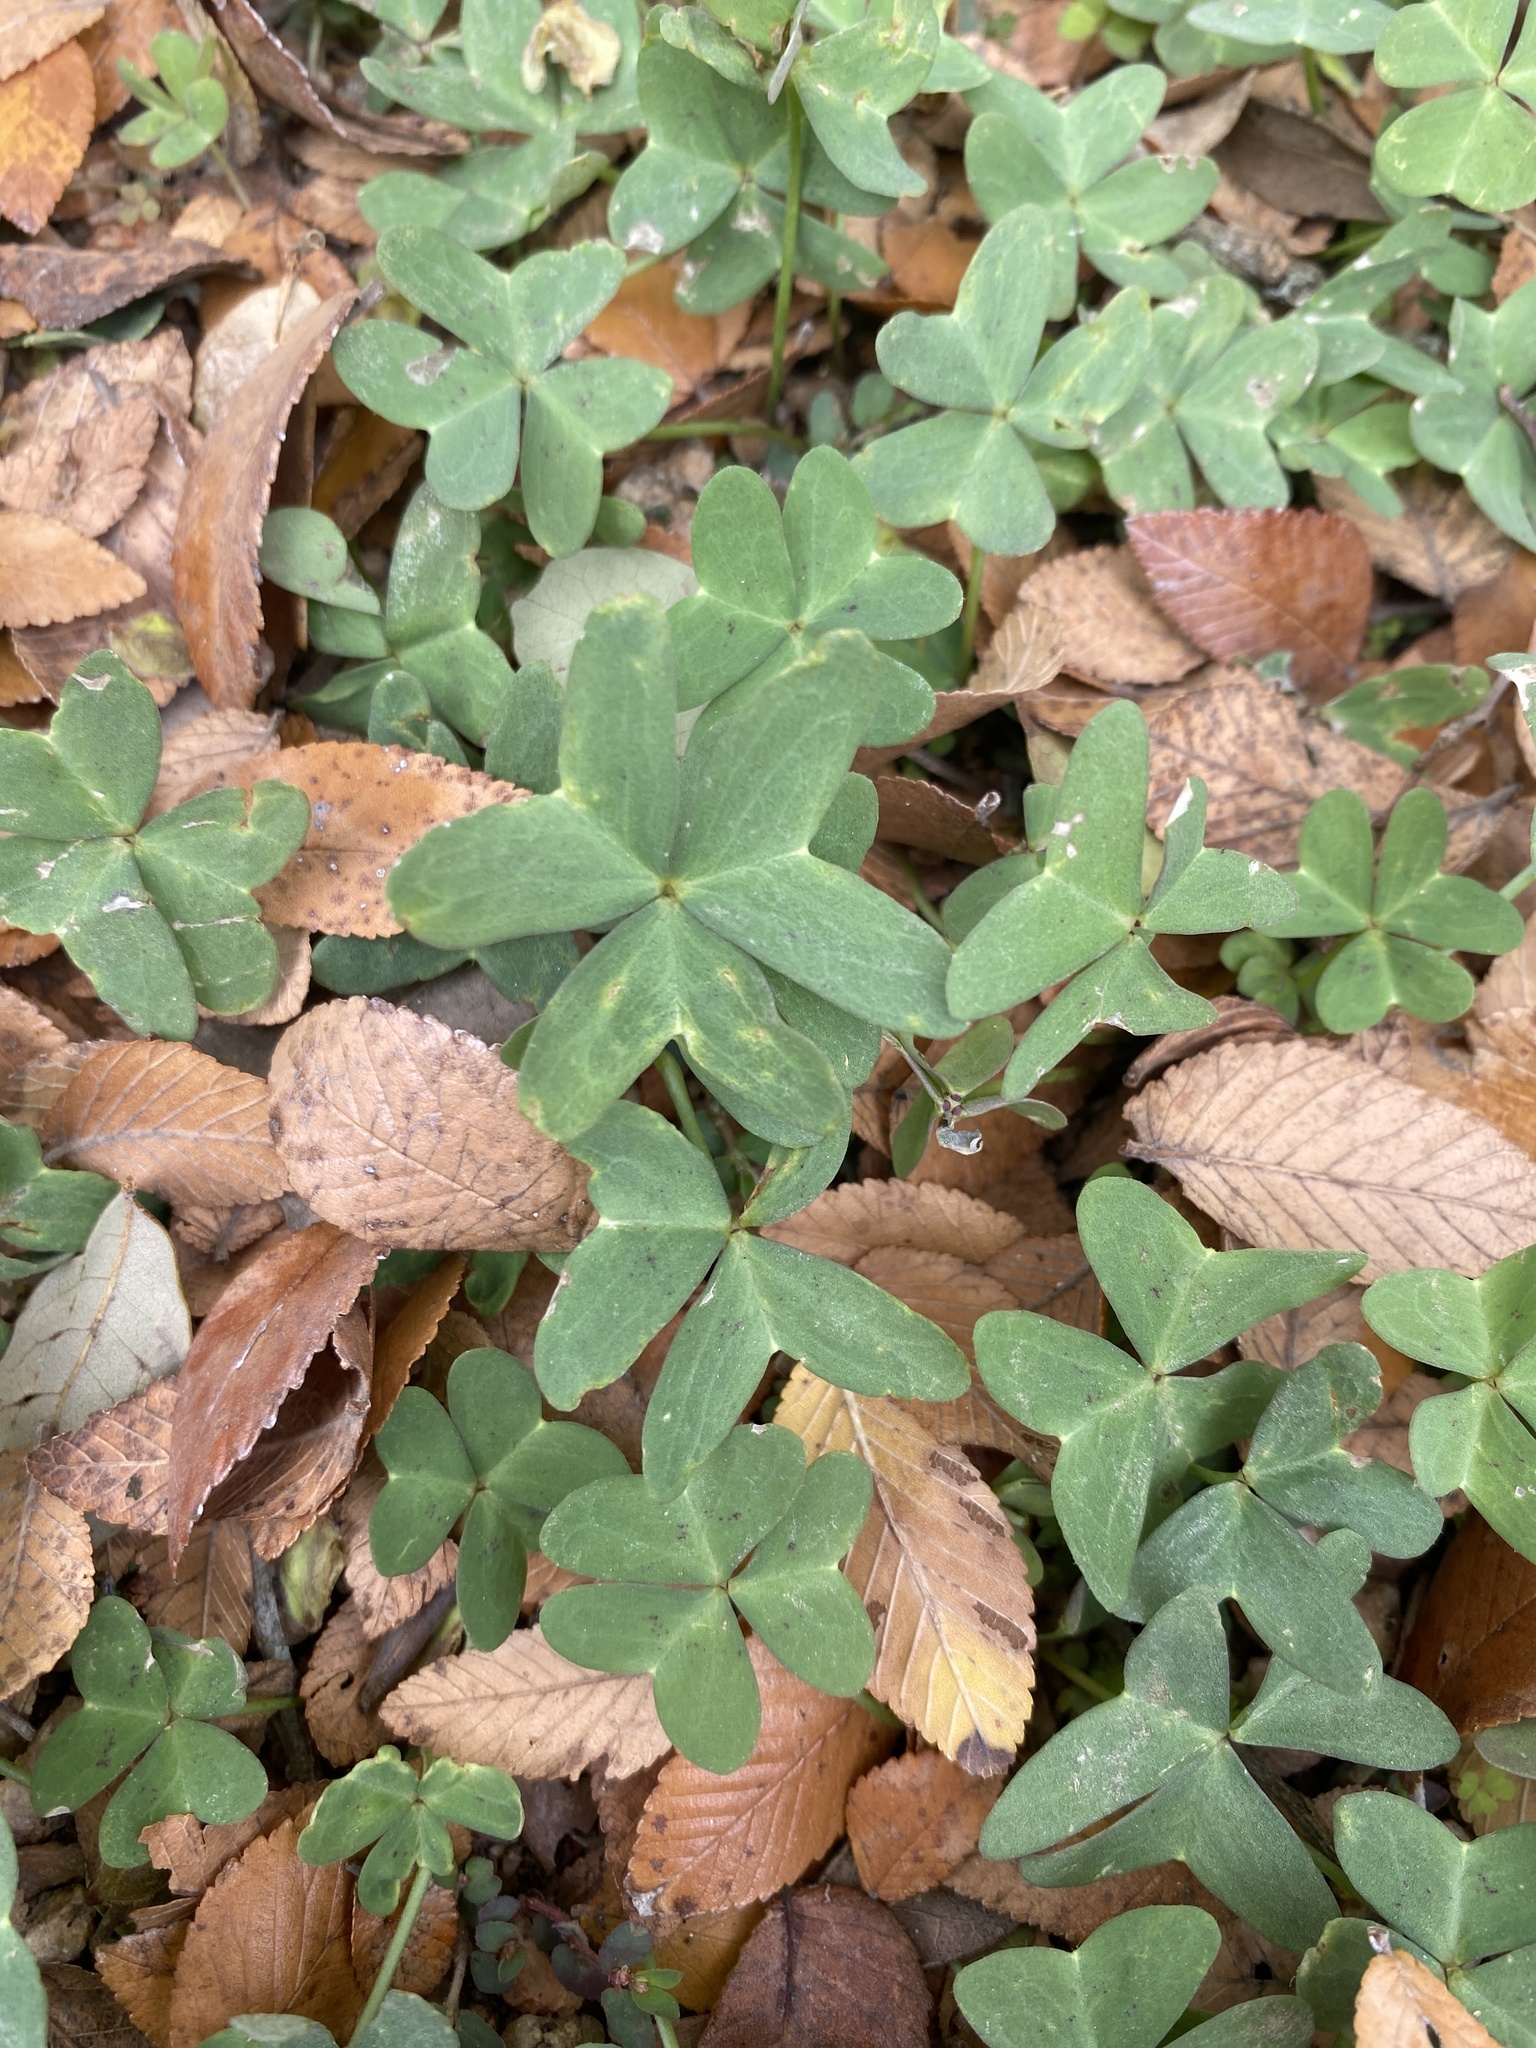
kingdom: Plantae
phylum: Tracheophyta
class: Magnoliopsida
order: Oxalidales
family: Oxalidaceae
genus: Oxalis
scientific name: Oxalis drummondii
